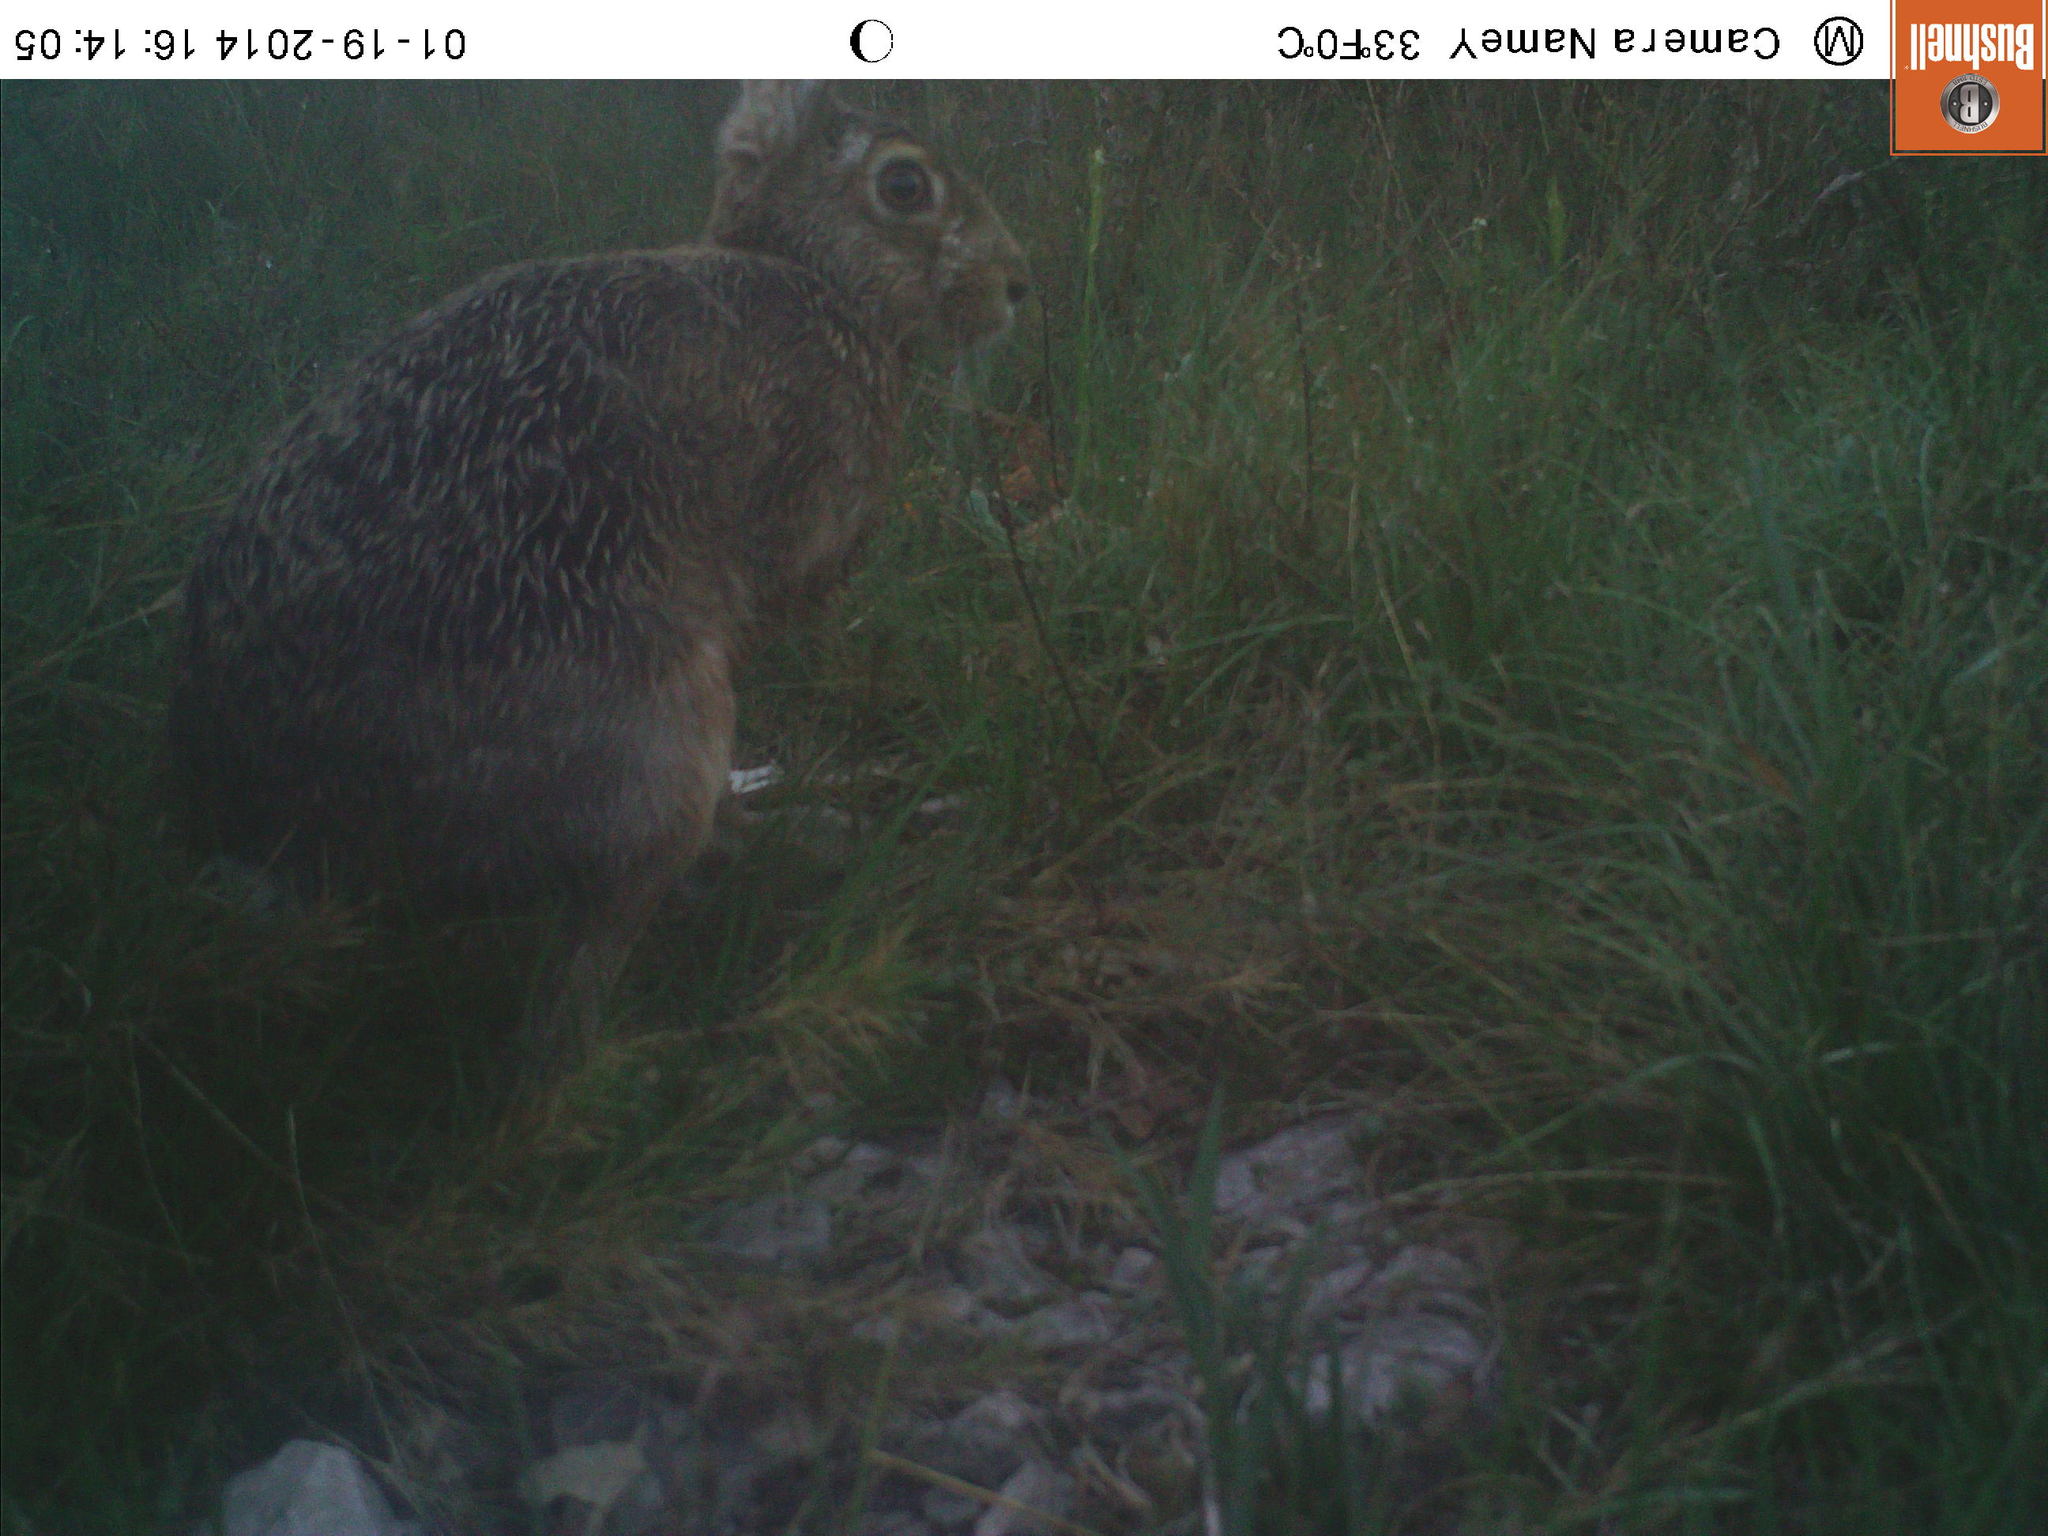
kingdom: Animalia
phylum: Chordata
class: Mammalia
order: Lagomorpha
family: Leporidae
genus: Lepus
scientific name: Lepus europaeus
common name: European hare
